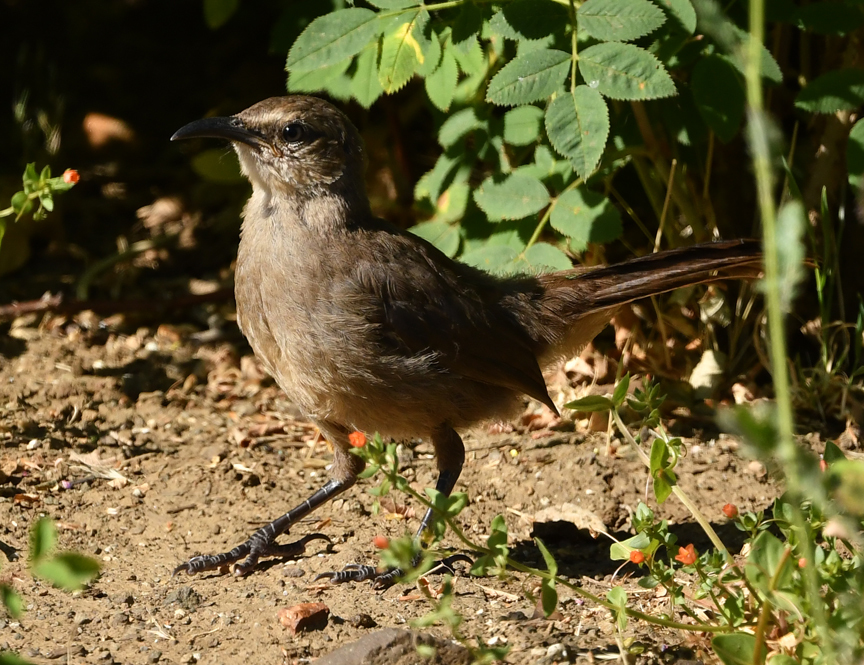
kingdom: Animalia
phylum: Chordata
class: Aves
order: Passeriformes
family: Mimidae
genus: Toxostoma
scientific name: Toxostoma redivivum
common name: California thrasher
